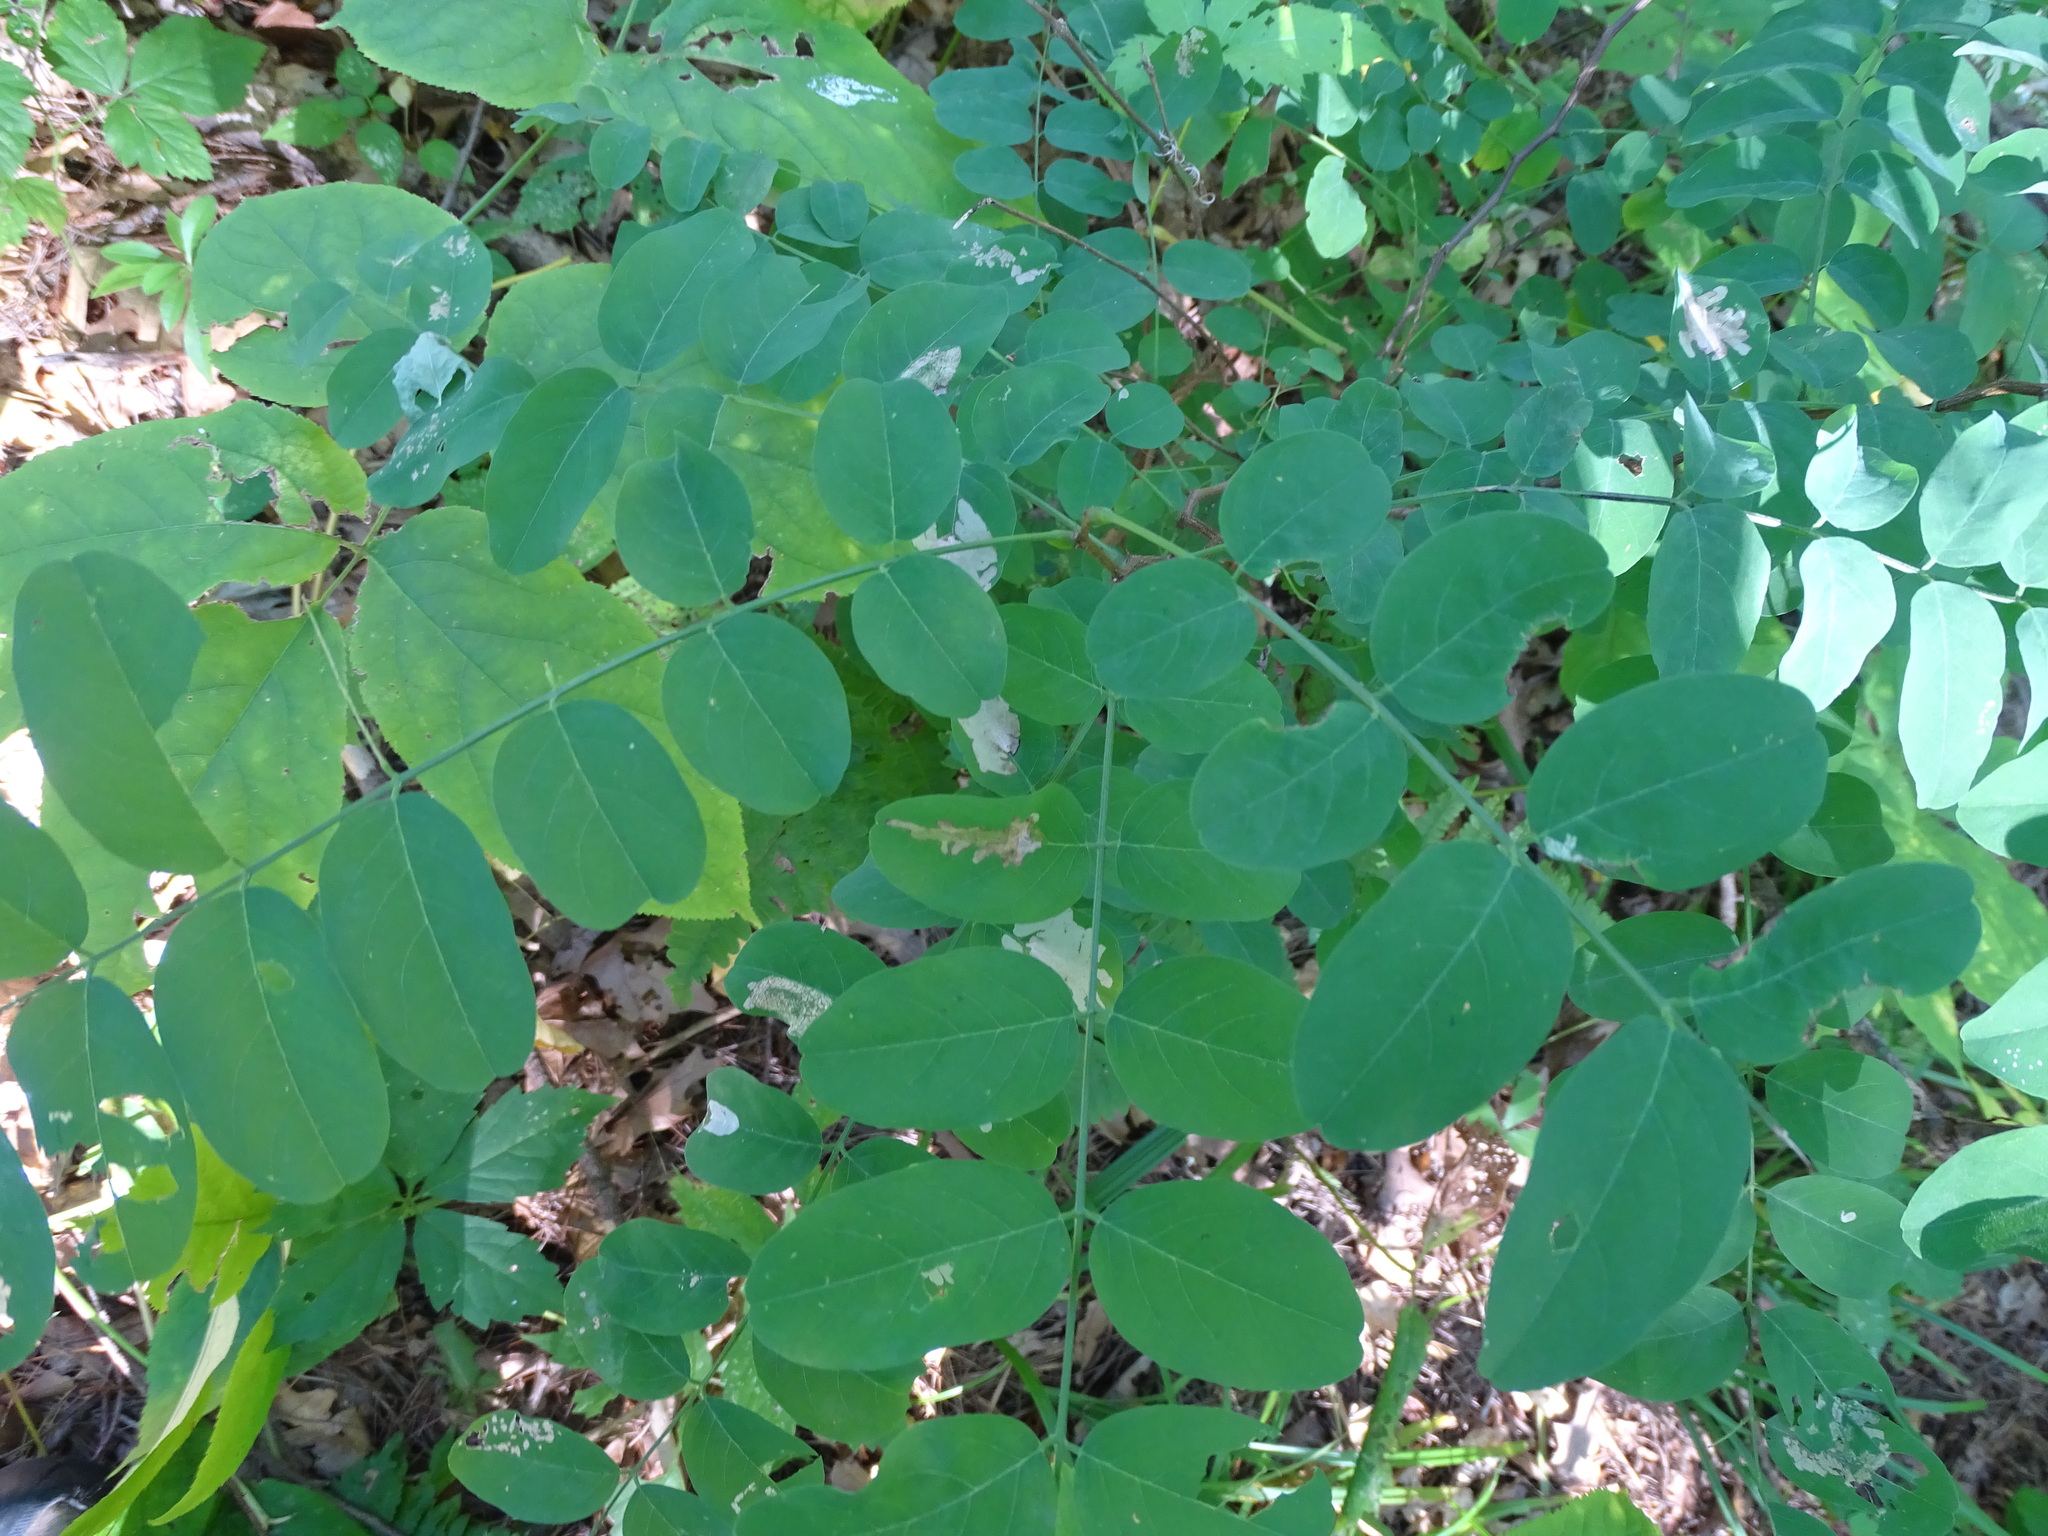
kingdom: Animalia
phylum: Arthropoda
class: Insecta
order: Lepidoptera
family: Gracillariidae
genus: Parectopa
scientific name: Parectopa robiniella
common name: Locust digitate leafminer
